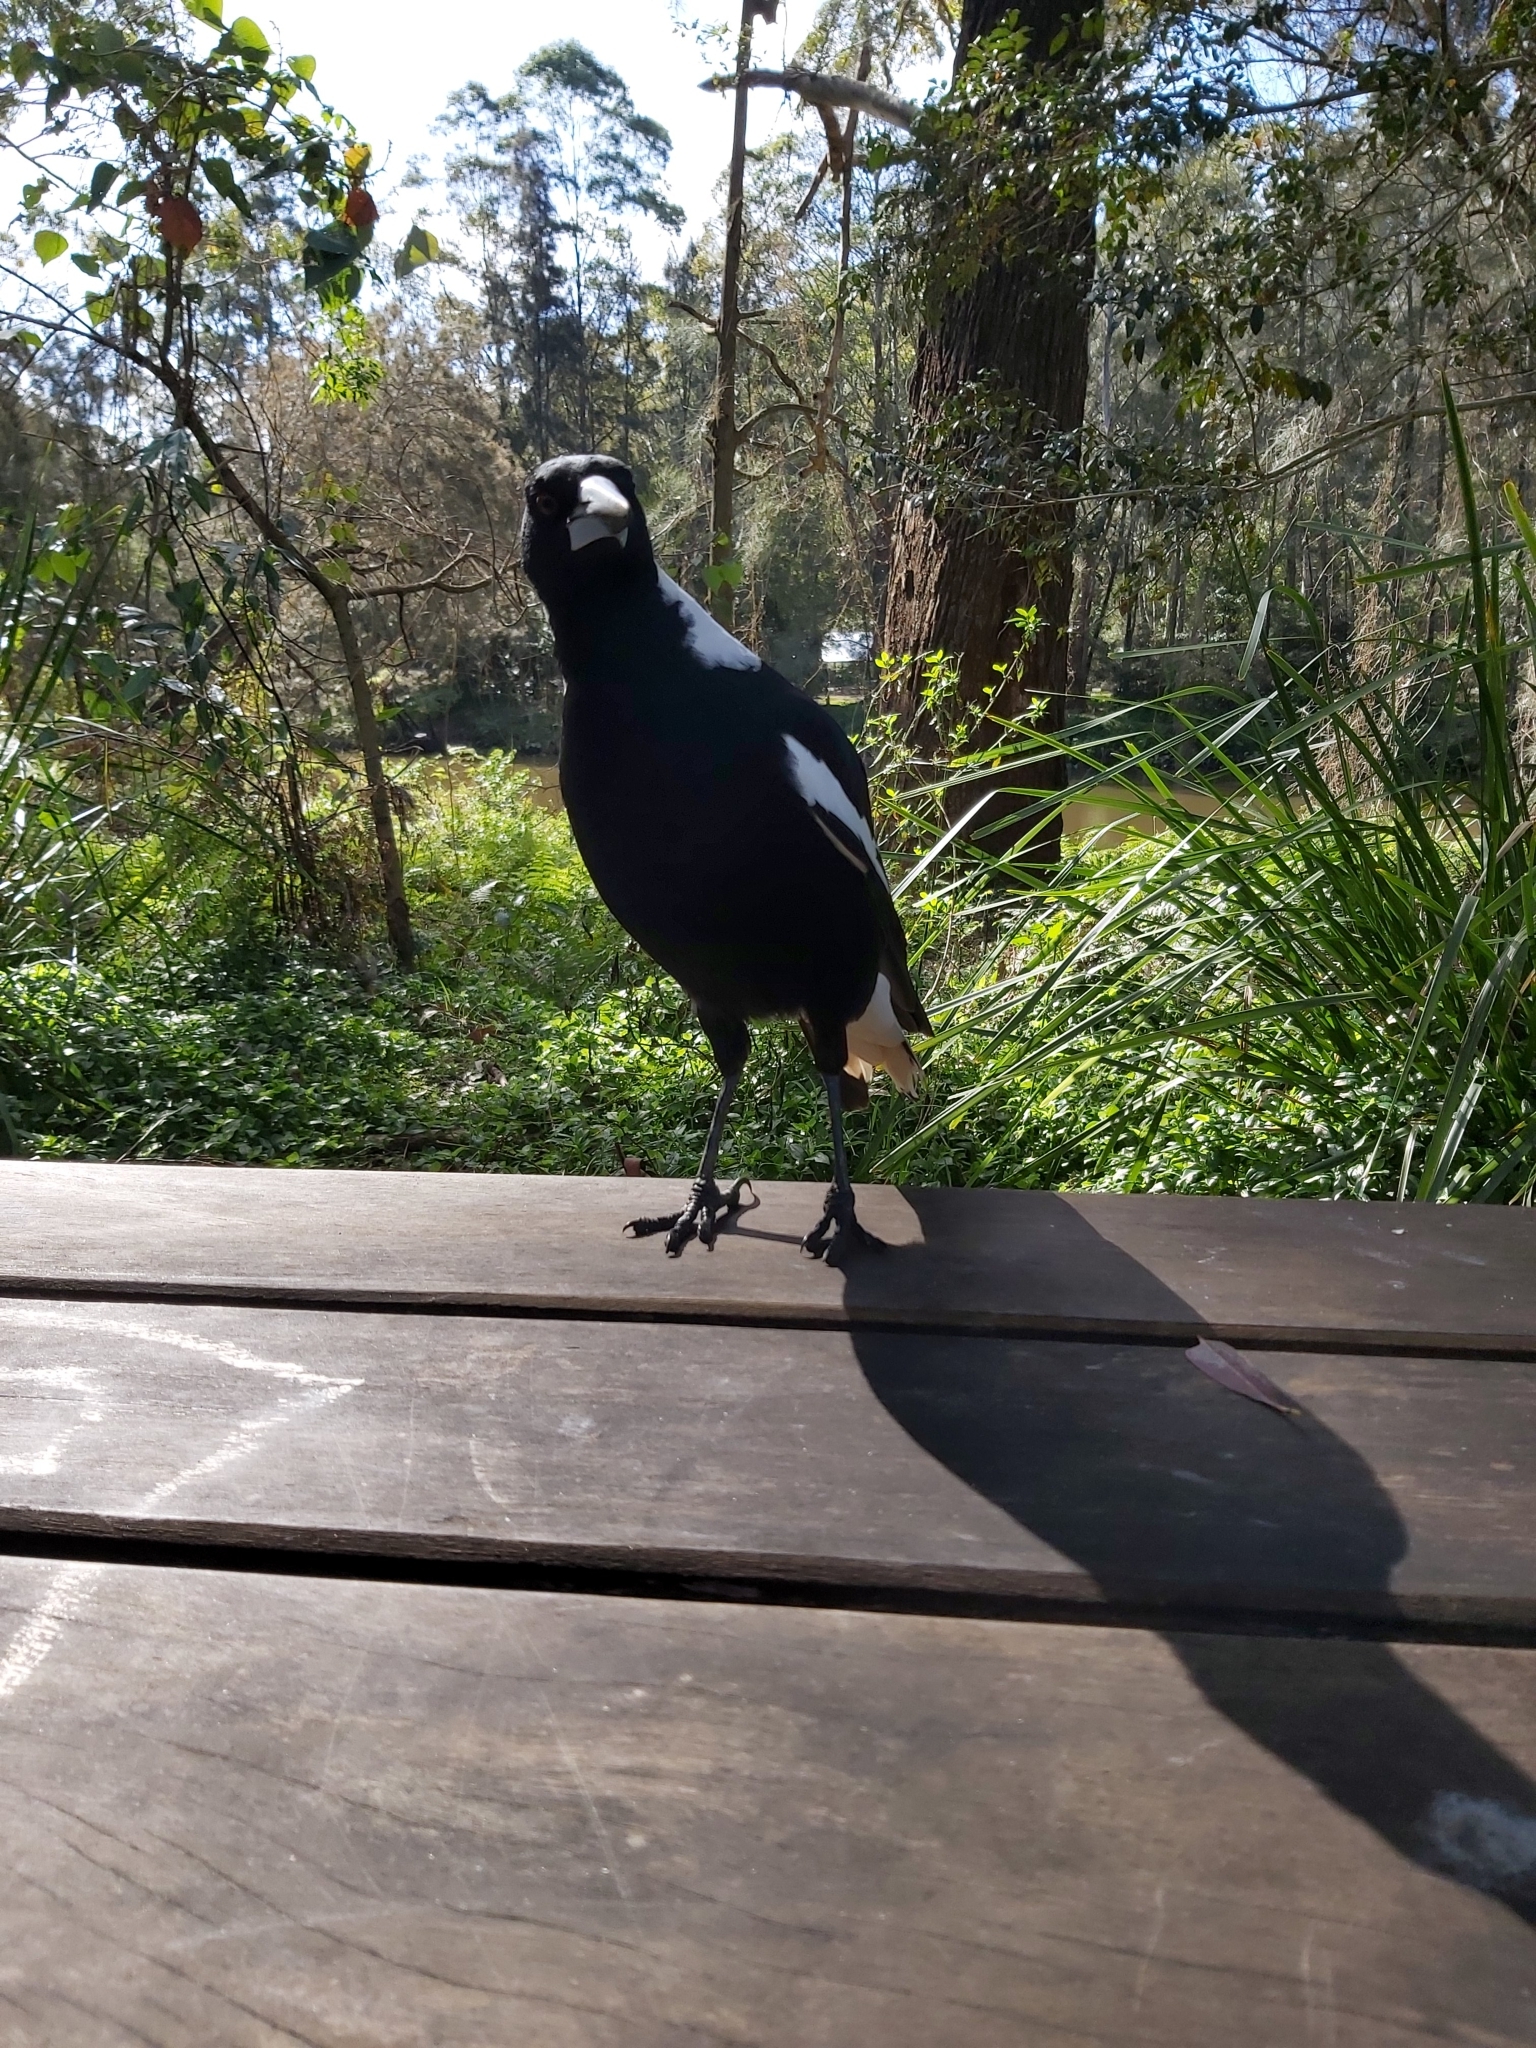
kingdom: Animalia
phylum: Chordata
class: Aves
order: Passeriformes
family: Cracticidae
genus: Gymnorhina
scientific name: Gymnorhina tibicen
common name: Australian magpie
